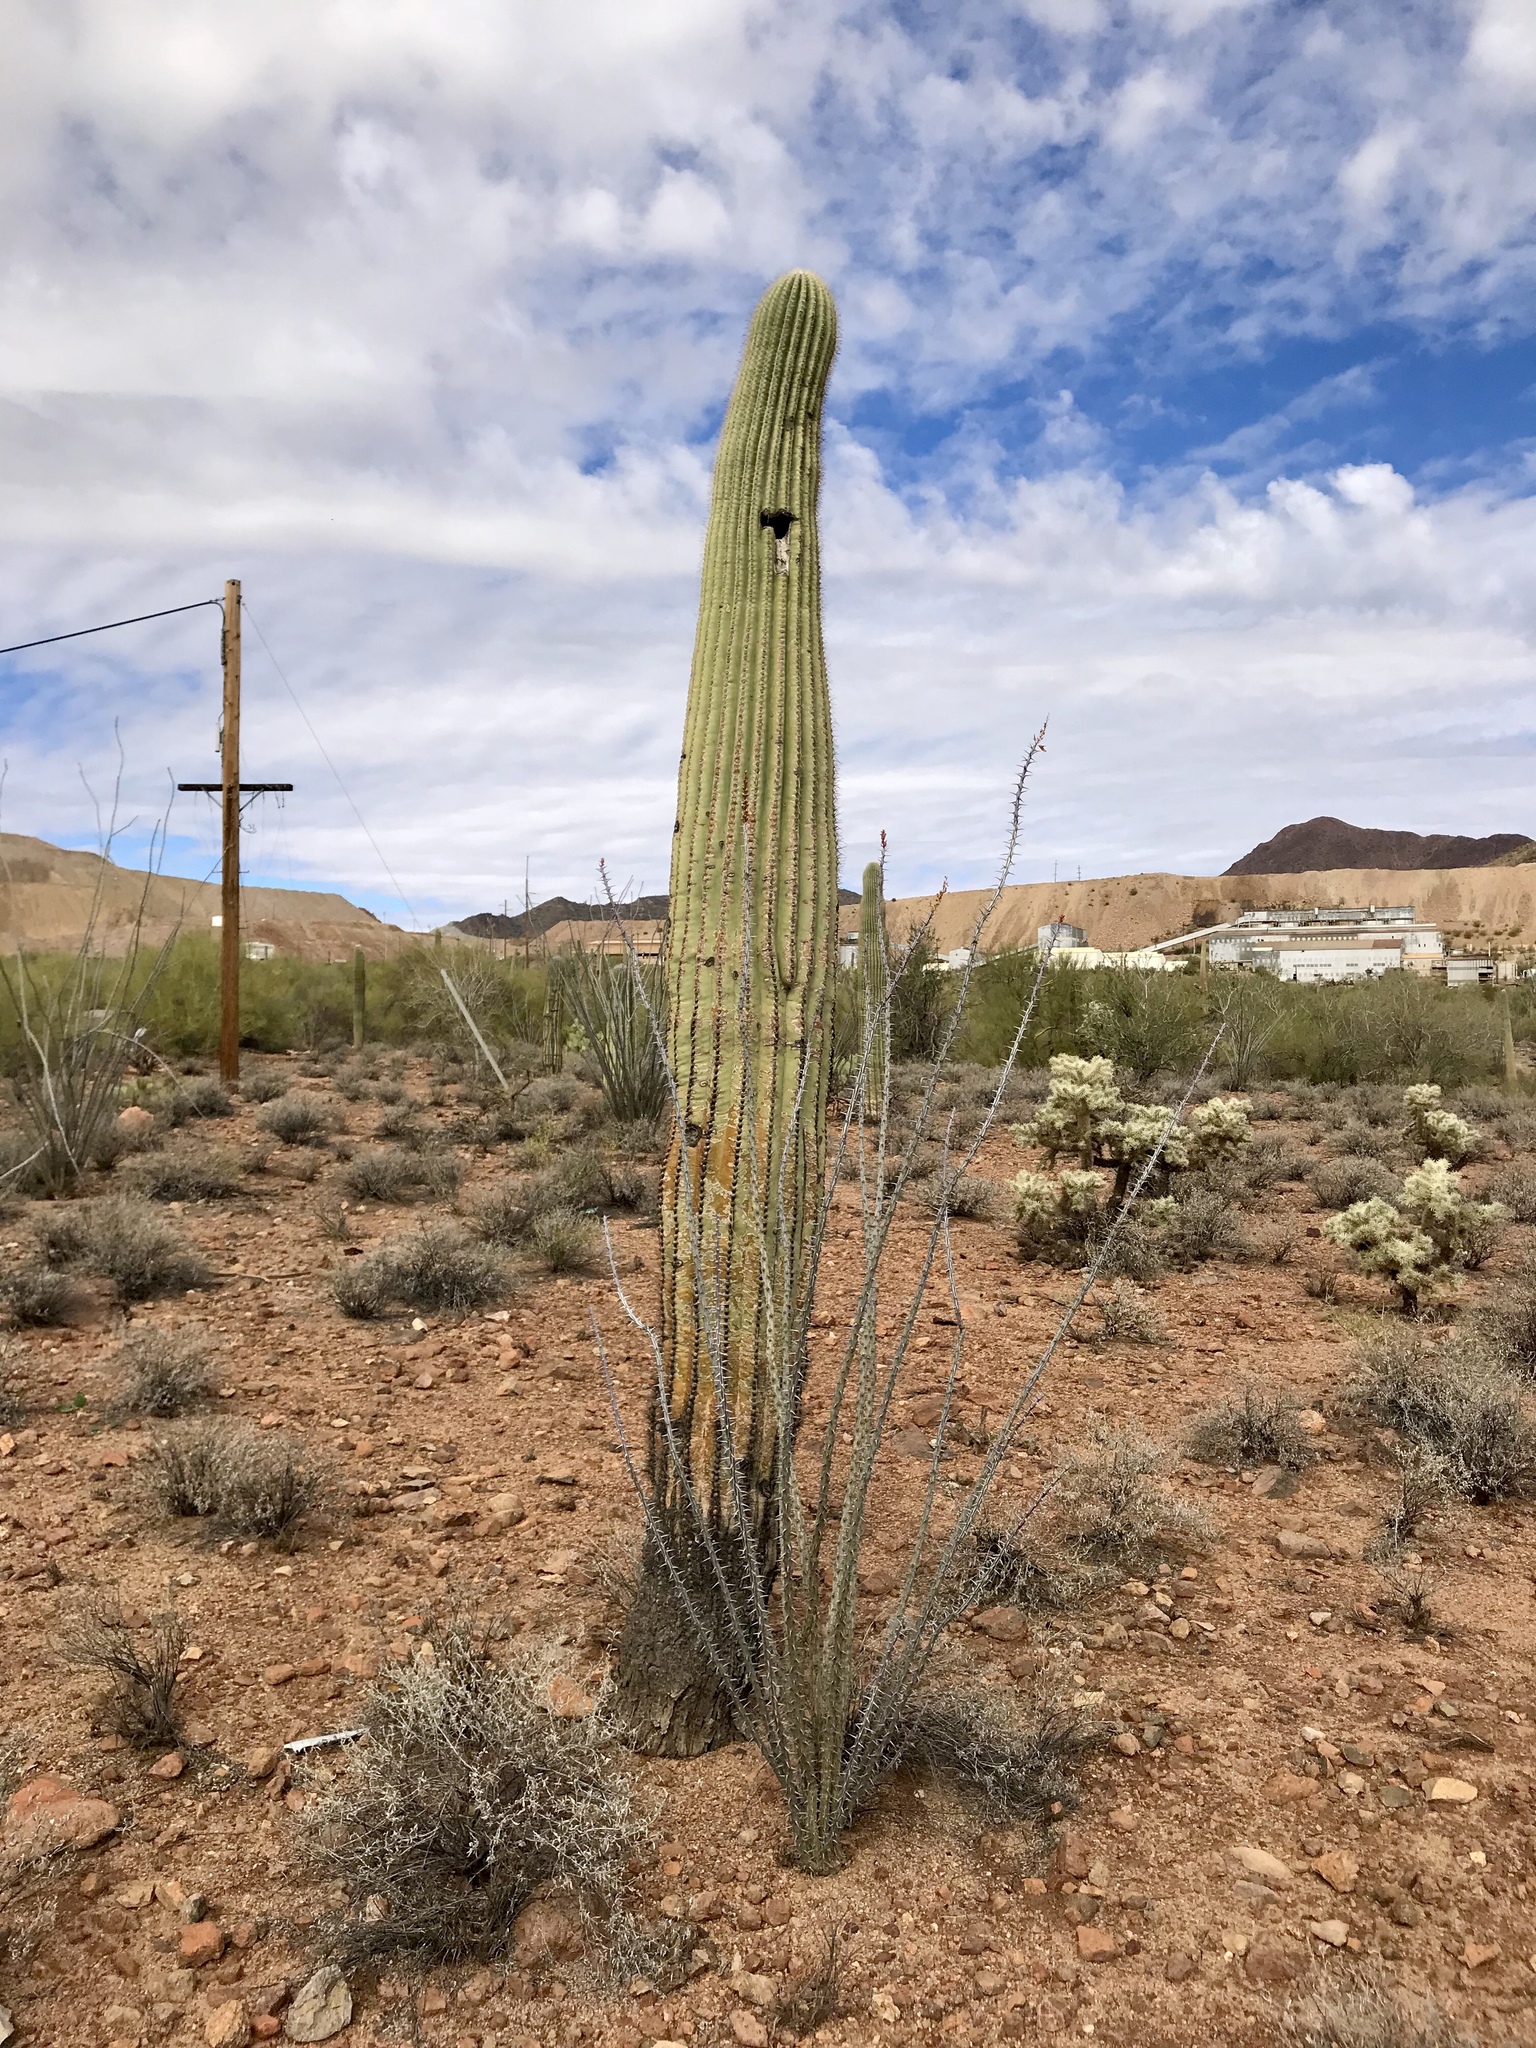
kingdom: Plantae
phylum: Tracheophyta
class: Magnoliopsida
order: Ericales
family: Fouquieriaceae
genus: Fouquieria
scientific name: Fouquieria splendens
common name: Vine-cactus
